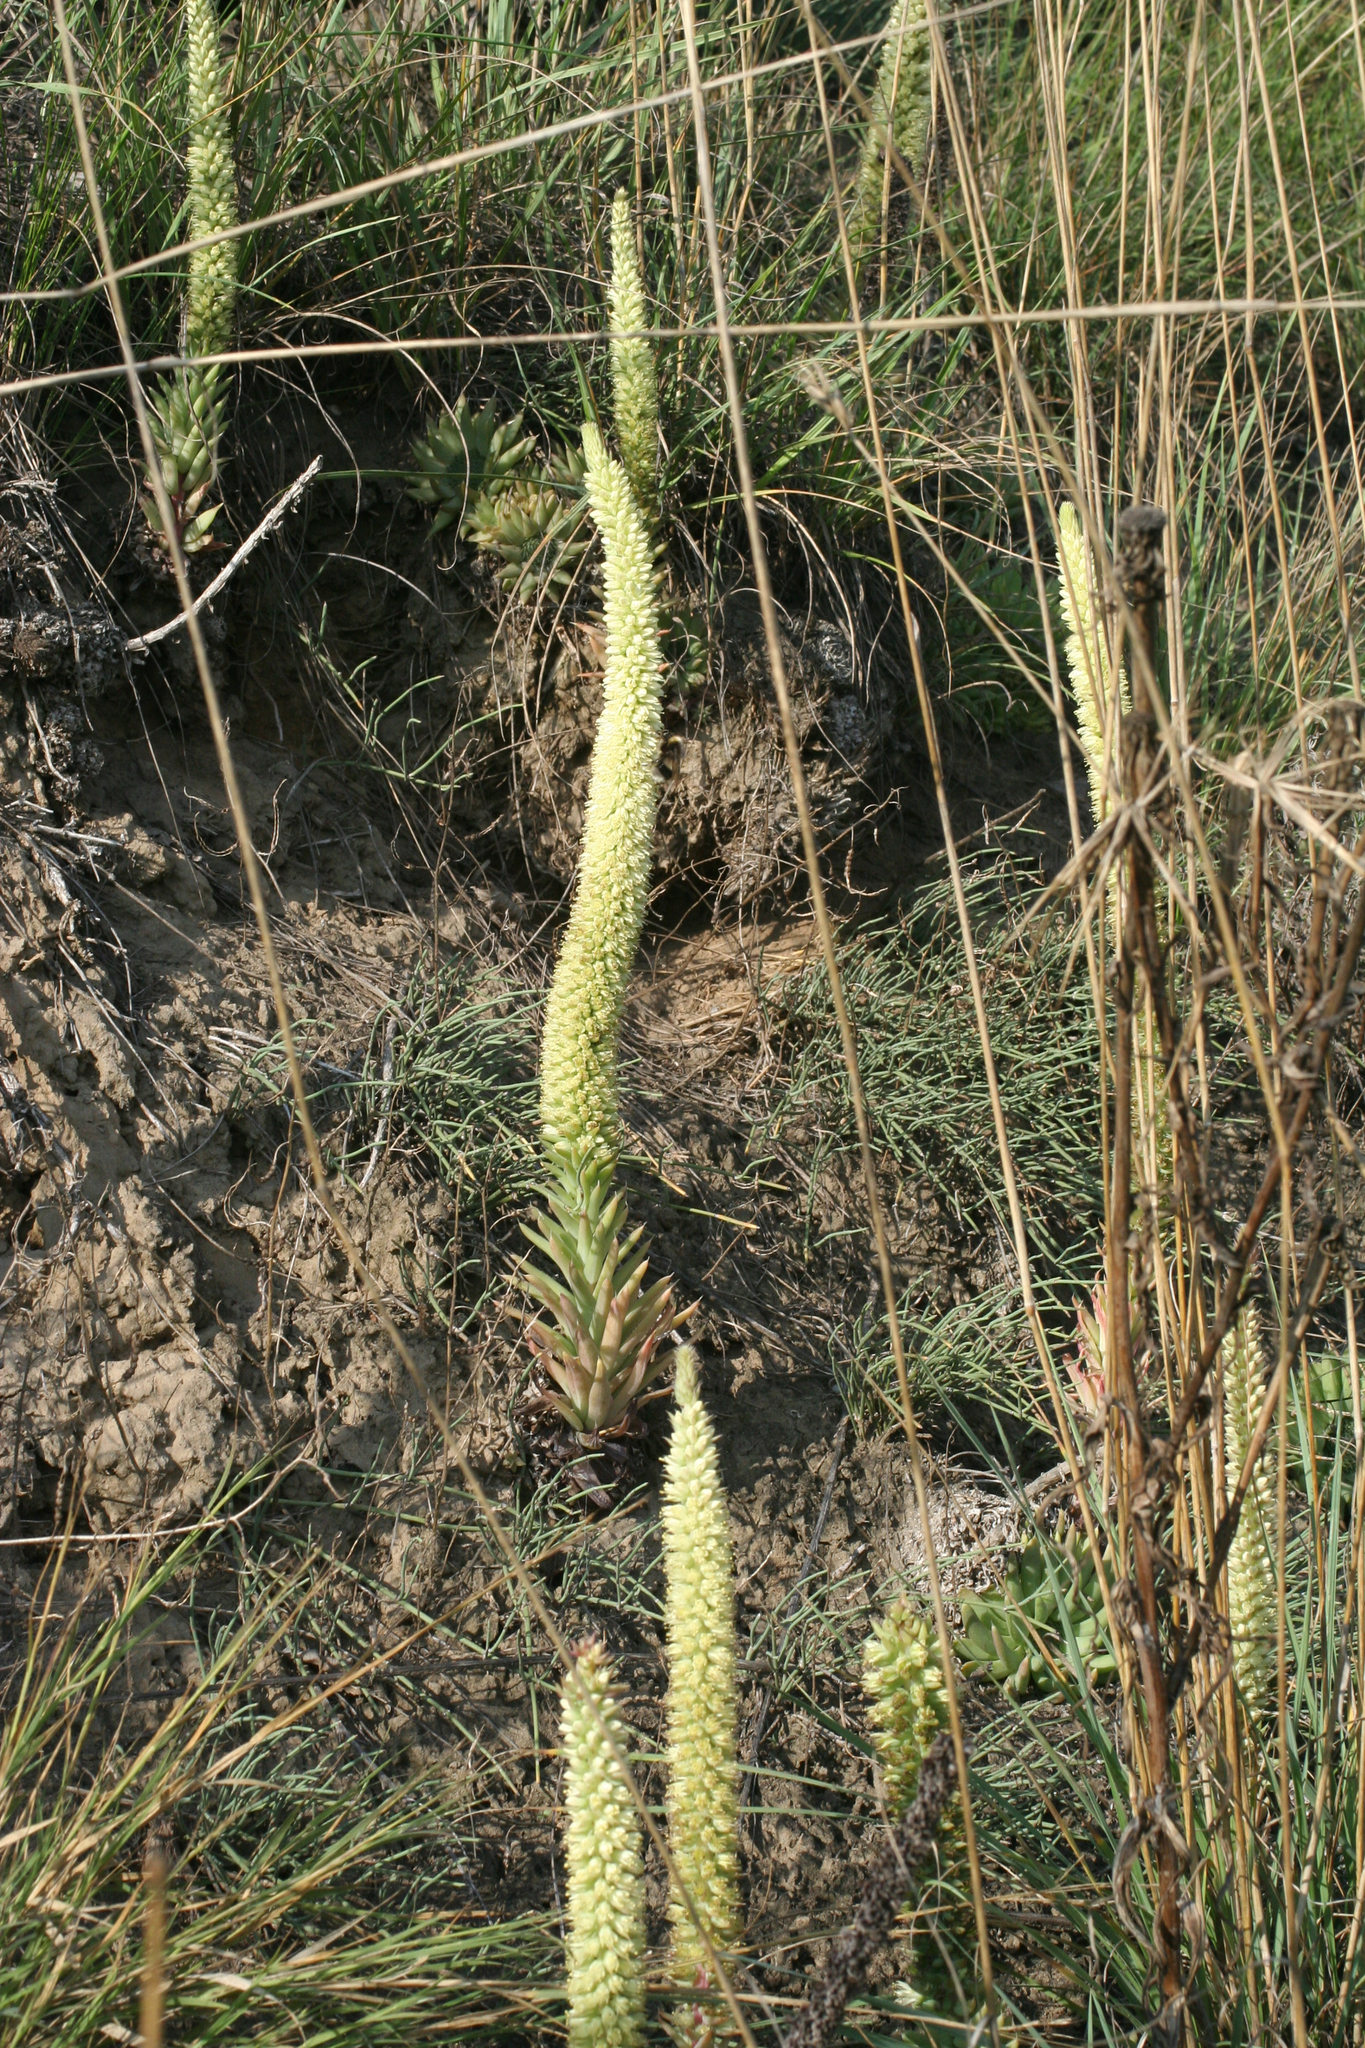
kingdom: Plantae
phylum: Tracheophyta
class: Magnoliopsida
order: Saxifragales
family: Crassulaceae
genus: Orostachys
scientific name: Orostachys spinosa
